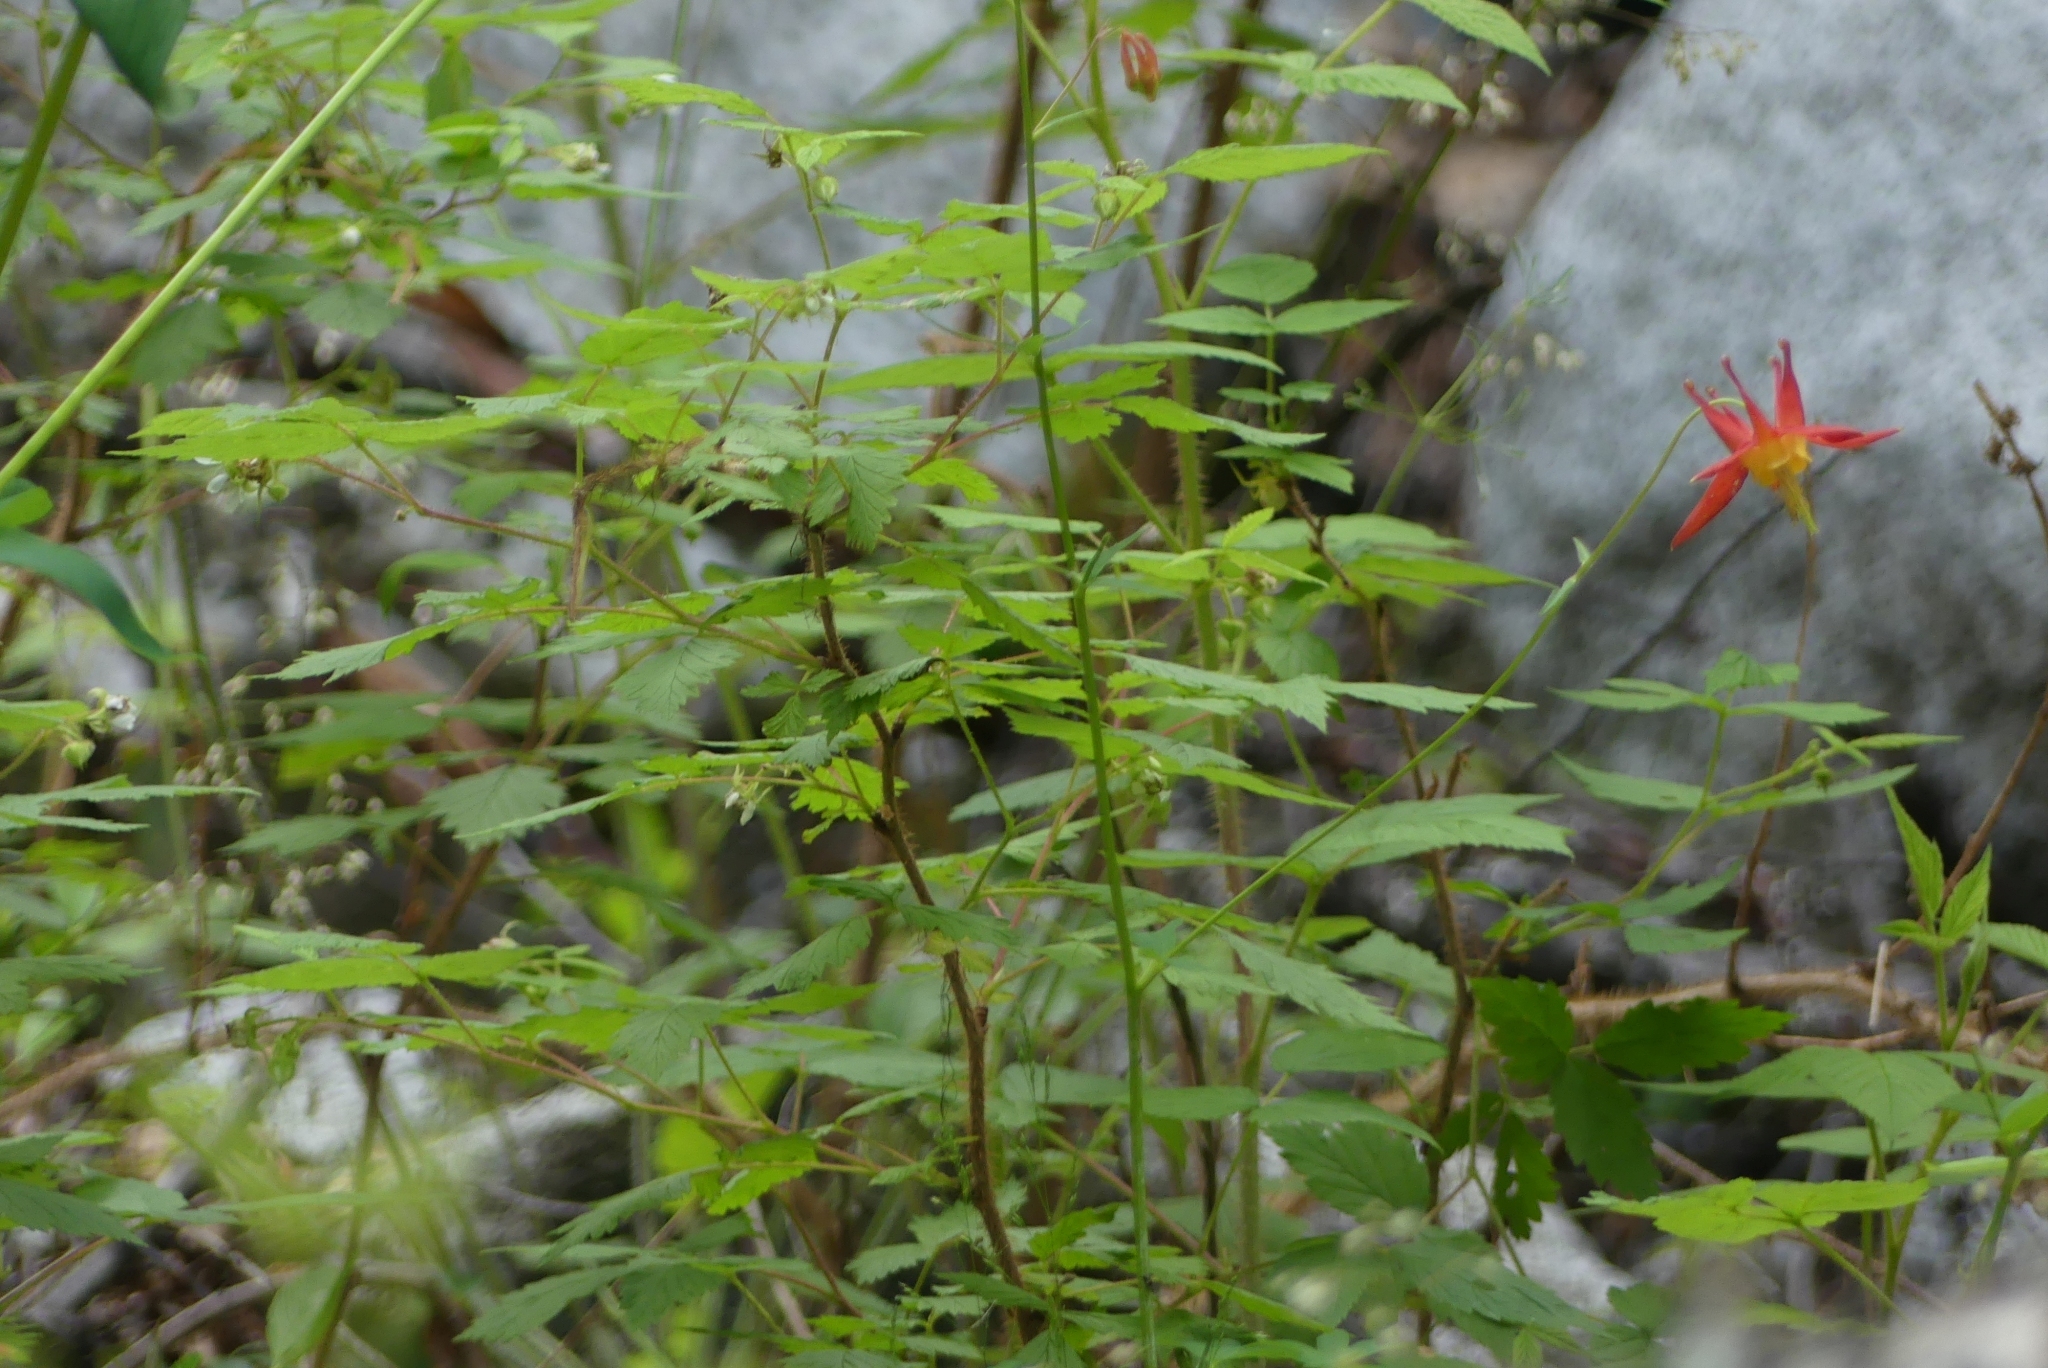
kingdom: Plantae
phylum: Tracheophyta
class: Magnoliopsida
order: Ranunculales
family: Ranunculaceae
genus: Aquilegia
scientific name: Aquilegia formosa
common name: Sitka columbine
